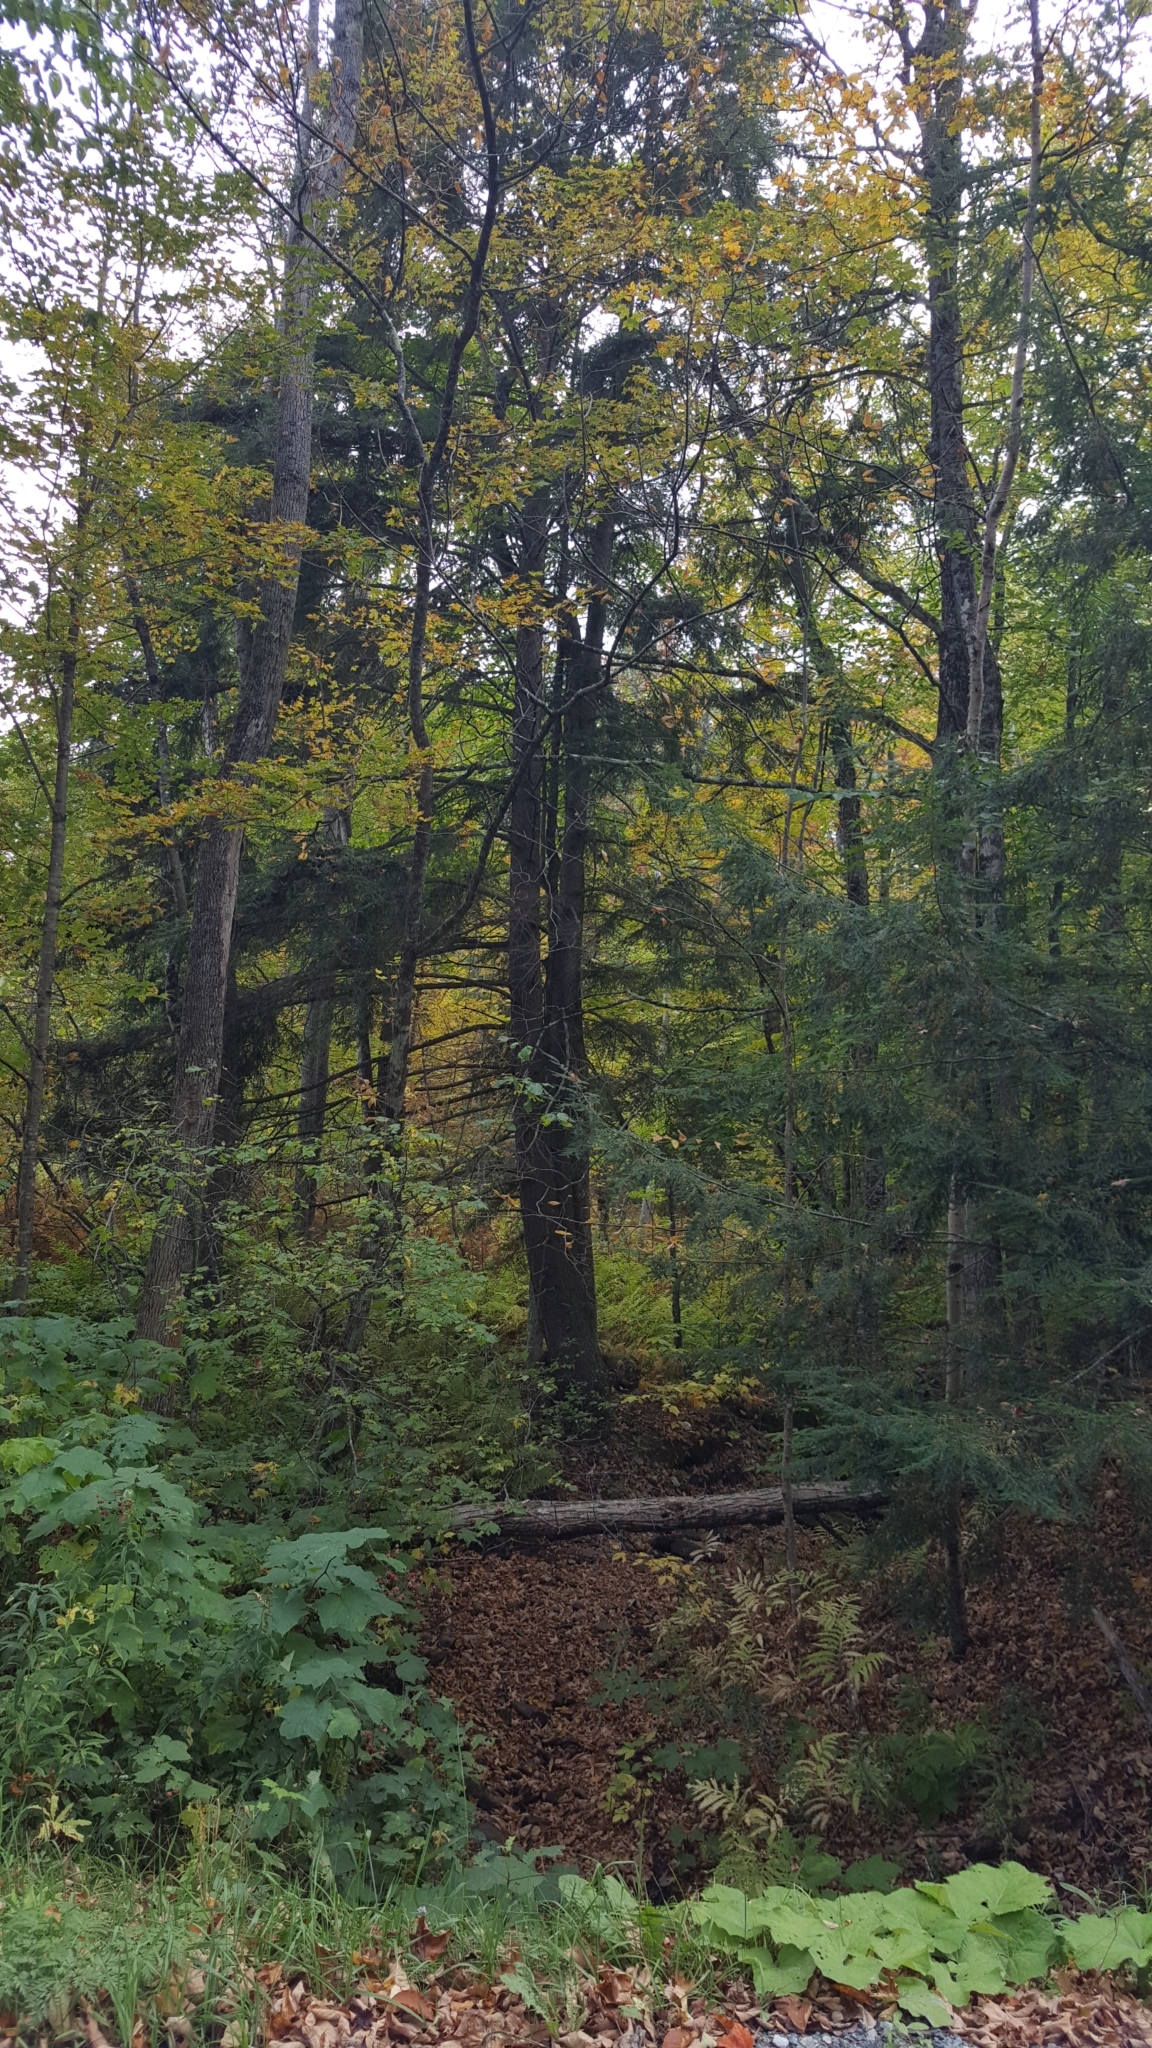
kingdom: Plantae
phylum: Tracheophyta
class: Pinopsida
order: Pinales
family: Pinaceae
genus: Tsuga
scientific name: Tsuga canadensis
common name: Eastern hemlock
